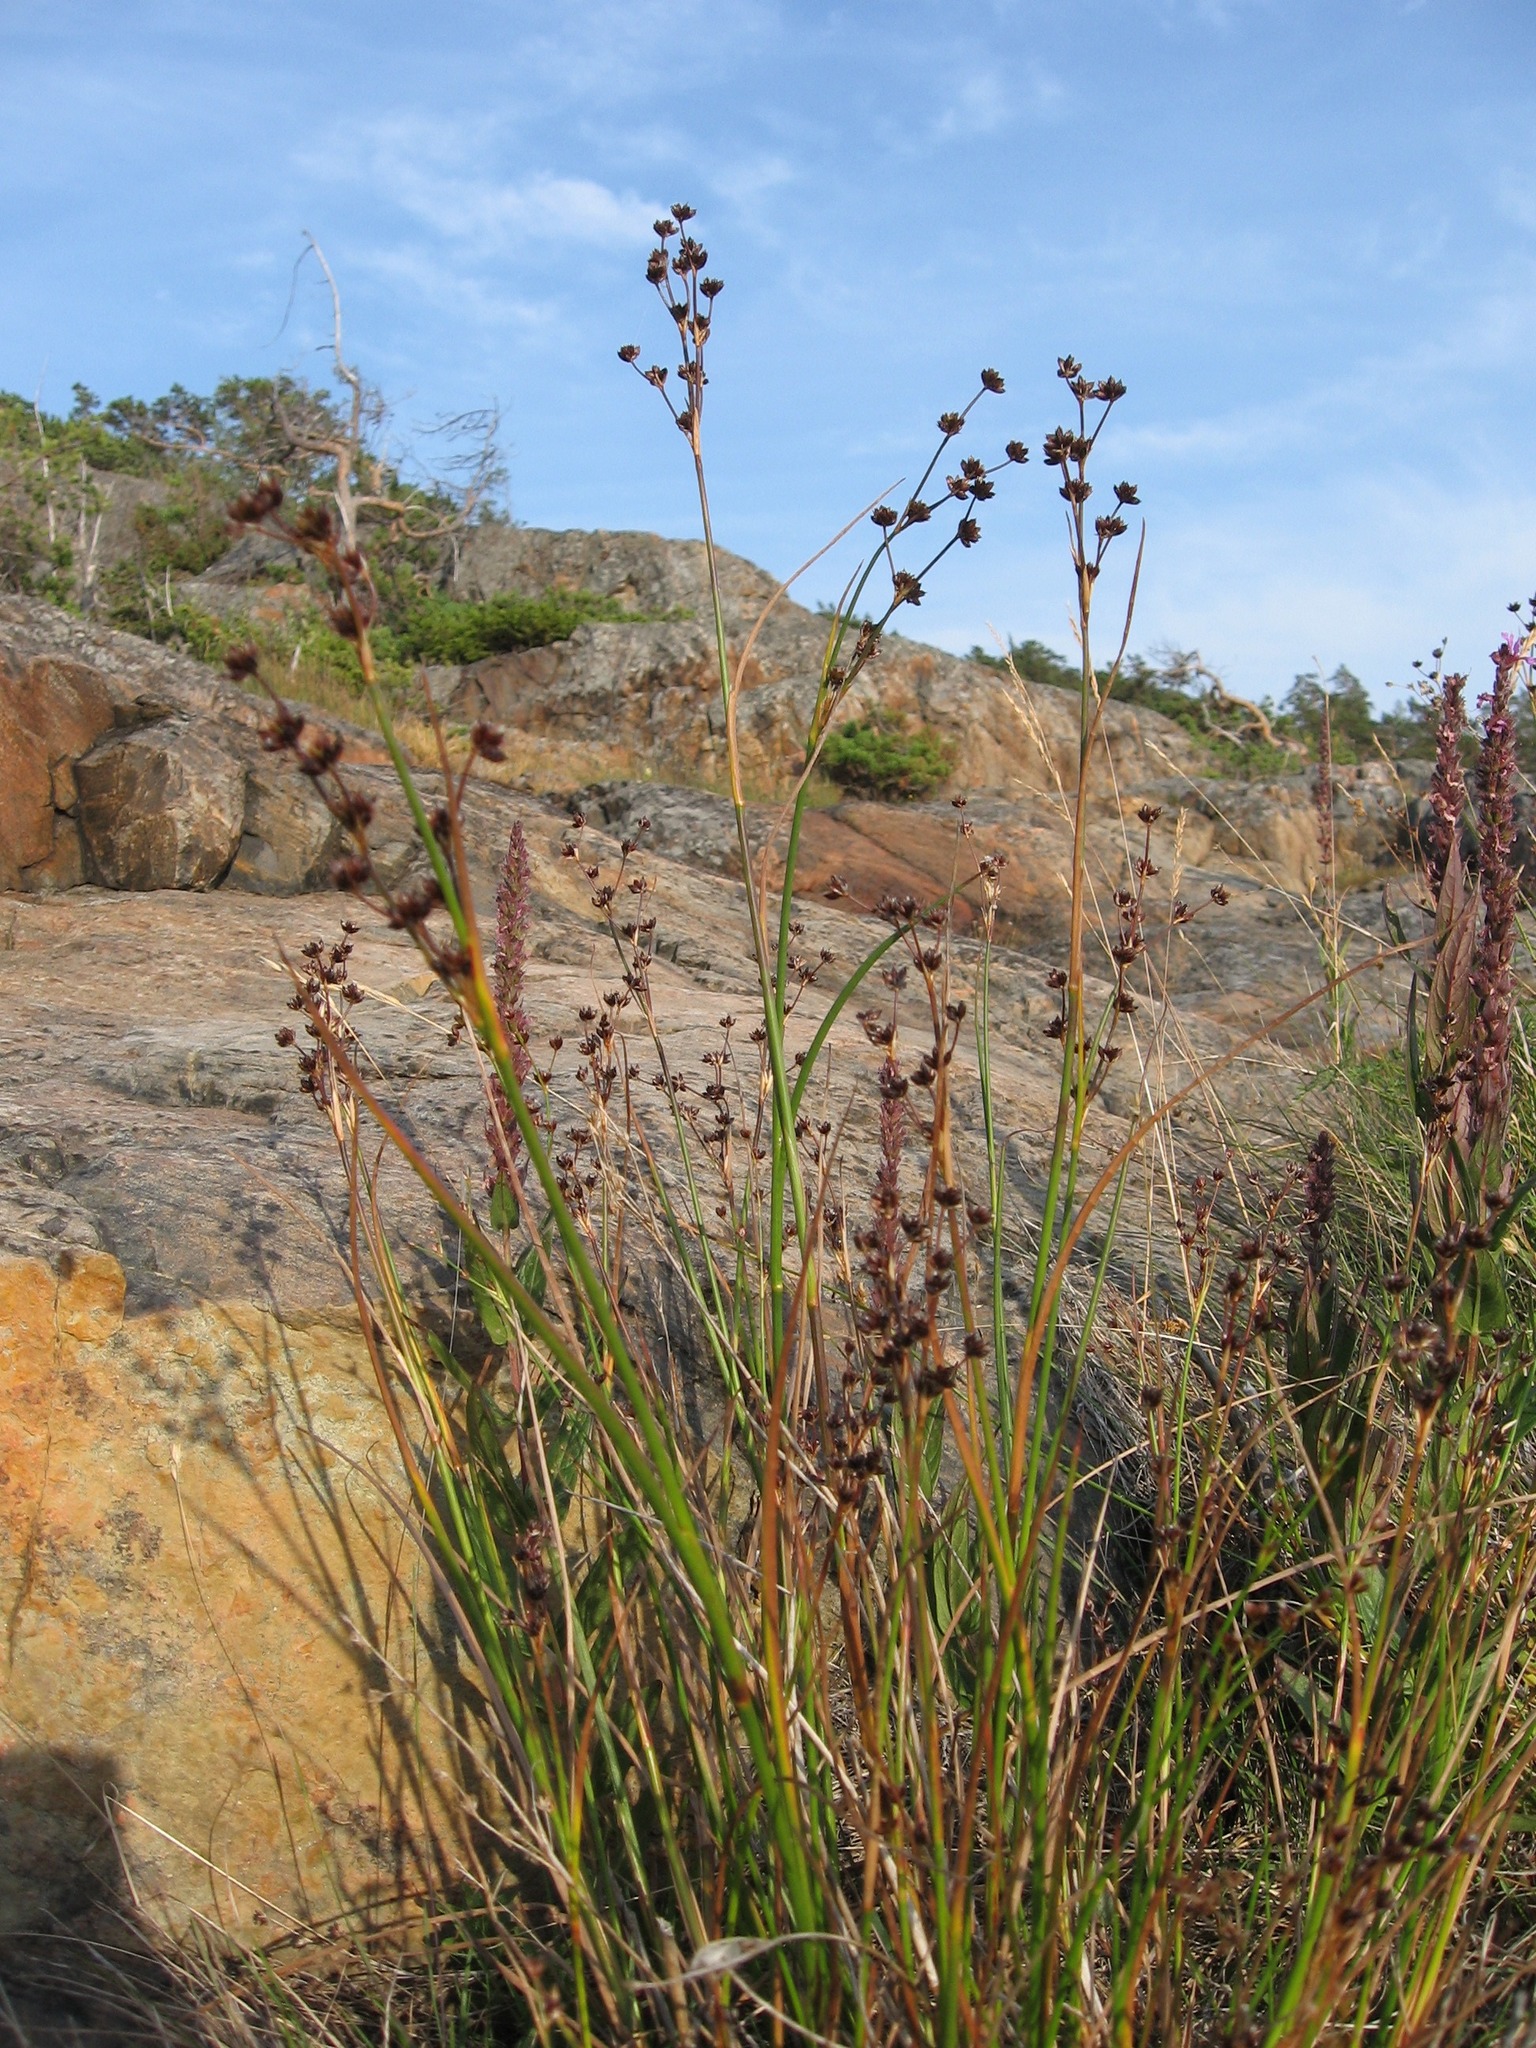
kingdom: Plantae
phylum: Tracheophyta
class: Liliopsida
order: Poales
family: Juncaceae
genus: Juncus
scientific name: Juncus alpinoarticulatus
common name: Alpine rush
